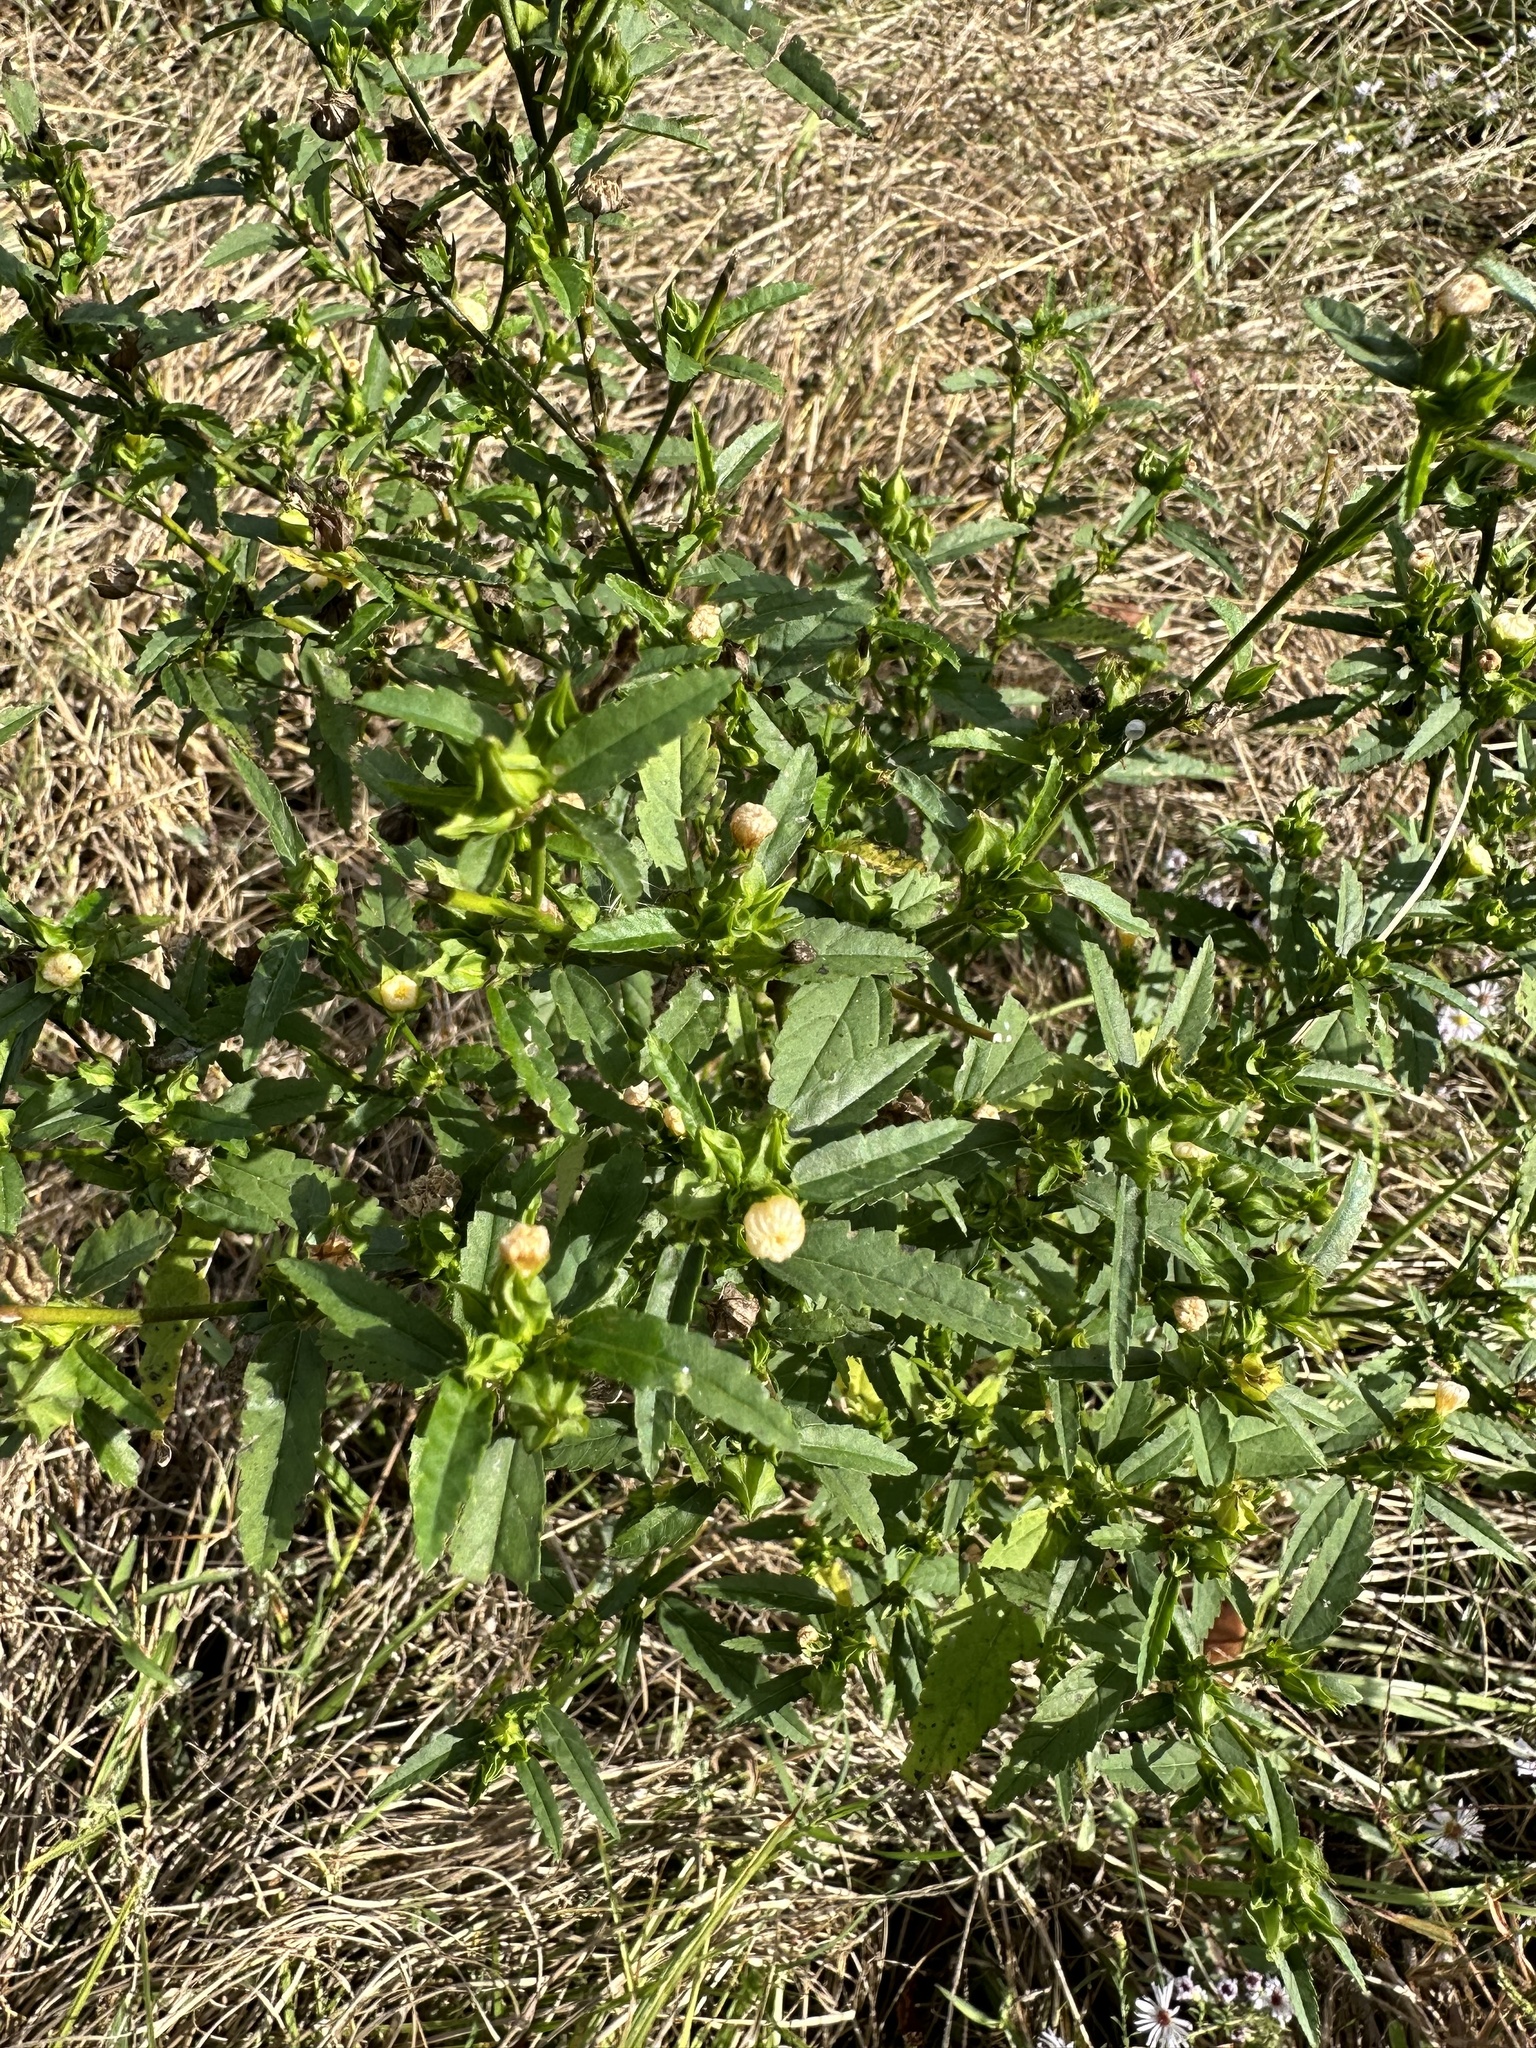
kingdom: Plantae
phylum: Tracheophyta
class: Magnoliopsida
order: Malvales
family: Malvaceae
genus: Sida
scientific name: Sida ulmifolia
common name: Broom weed
